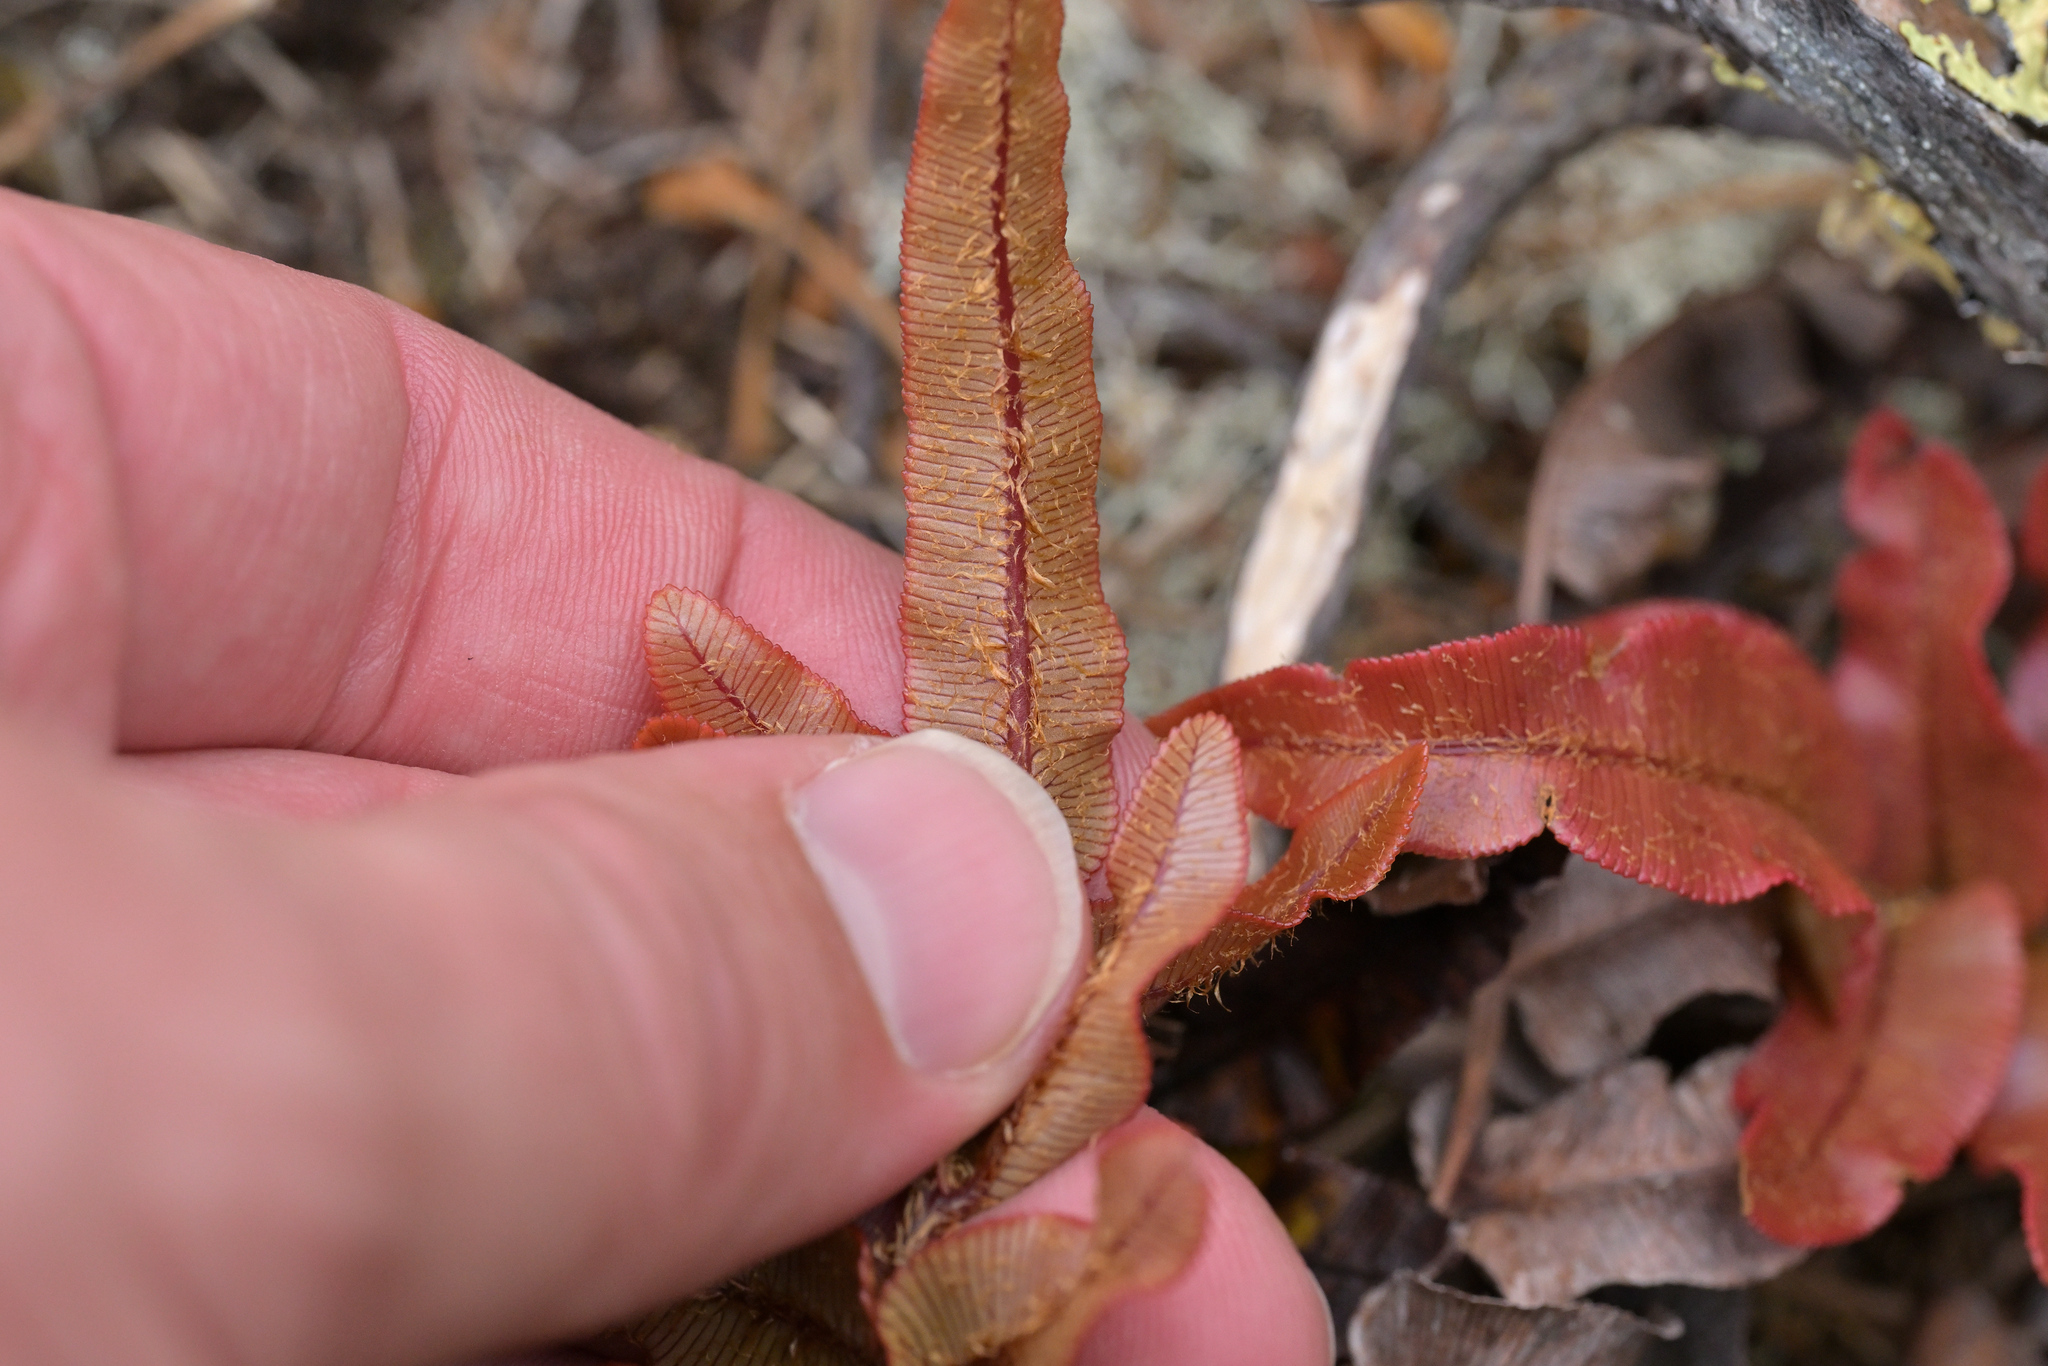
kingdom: Plantae
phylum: Tracheophyta
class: Polypodiopsida
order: Polypodiales
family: Blechnaceae
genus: Parablechnum
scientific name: Parablechnum montanum
